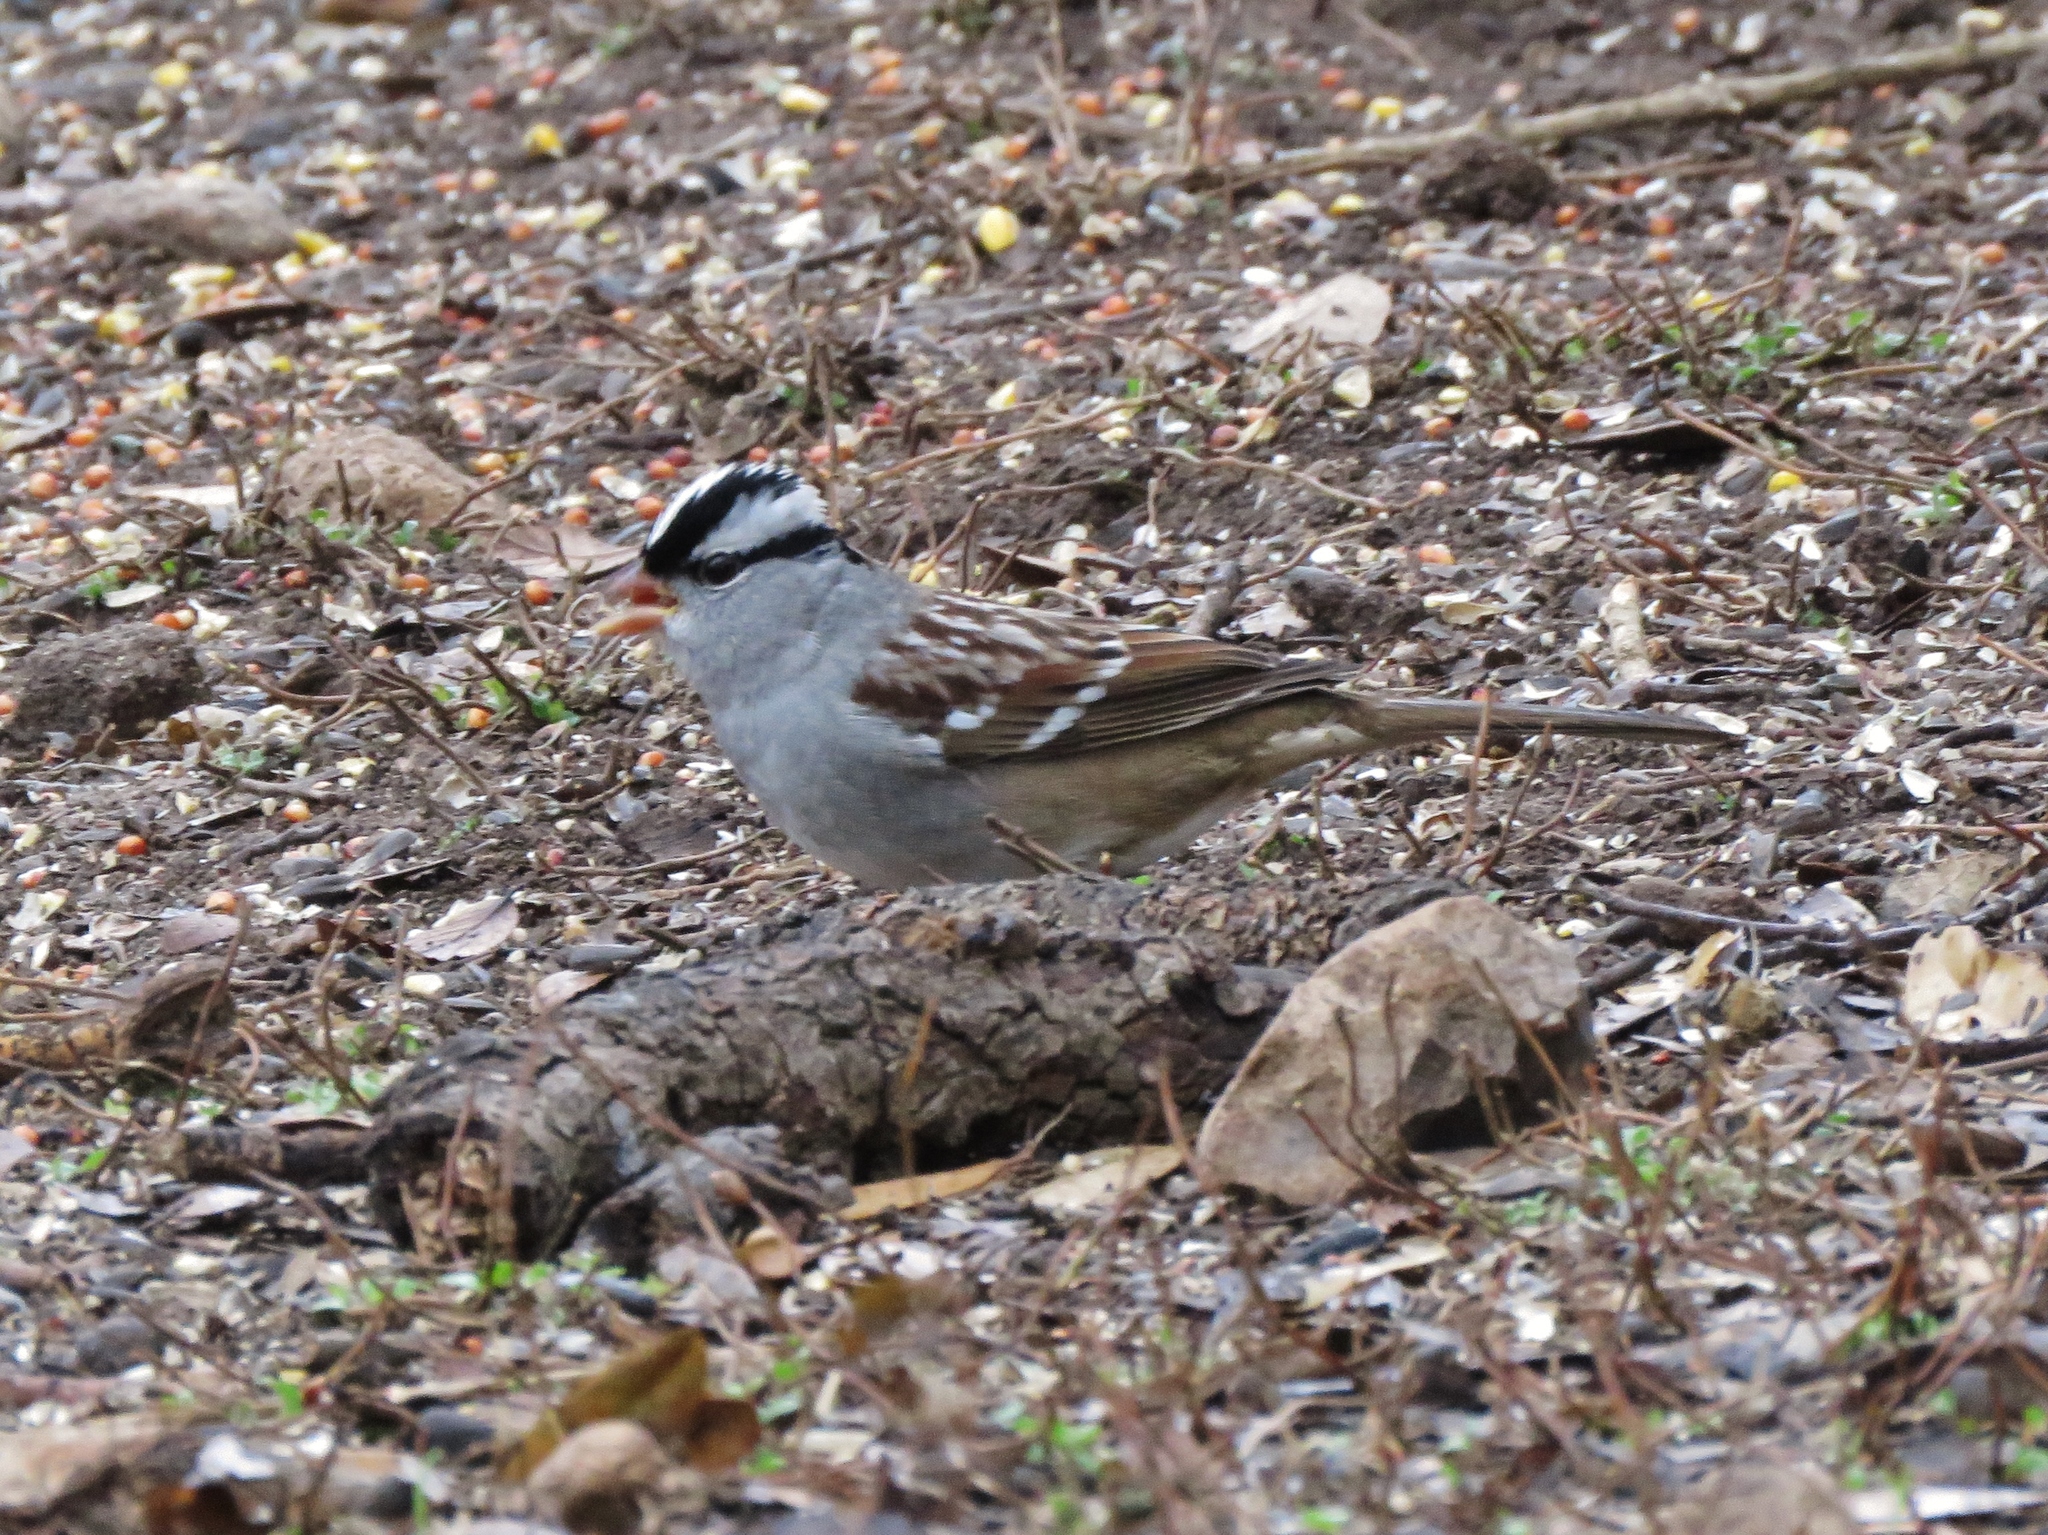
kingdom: Animalia
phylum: Chordata
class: Aves
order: Passeriformes
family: Passerellidae
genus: Zonotrichia
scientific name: Zonotrichia leucophrys
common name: White-crowned sparrow
